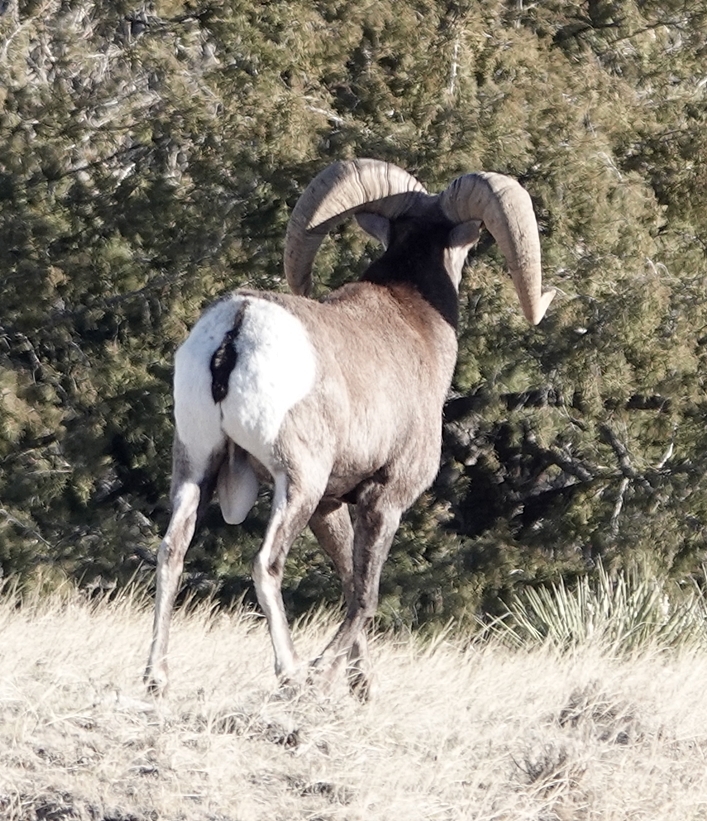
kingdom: Animalia
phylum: Chordata
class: Mammalia
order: Artiodactyla
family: Bovidae
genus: Ovis
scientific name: Ovis canadensis
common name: Bighorn sheep
